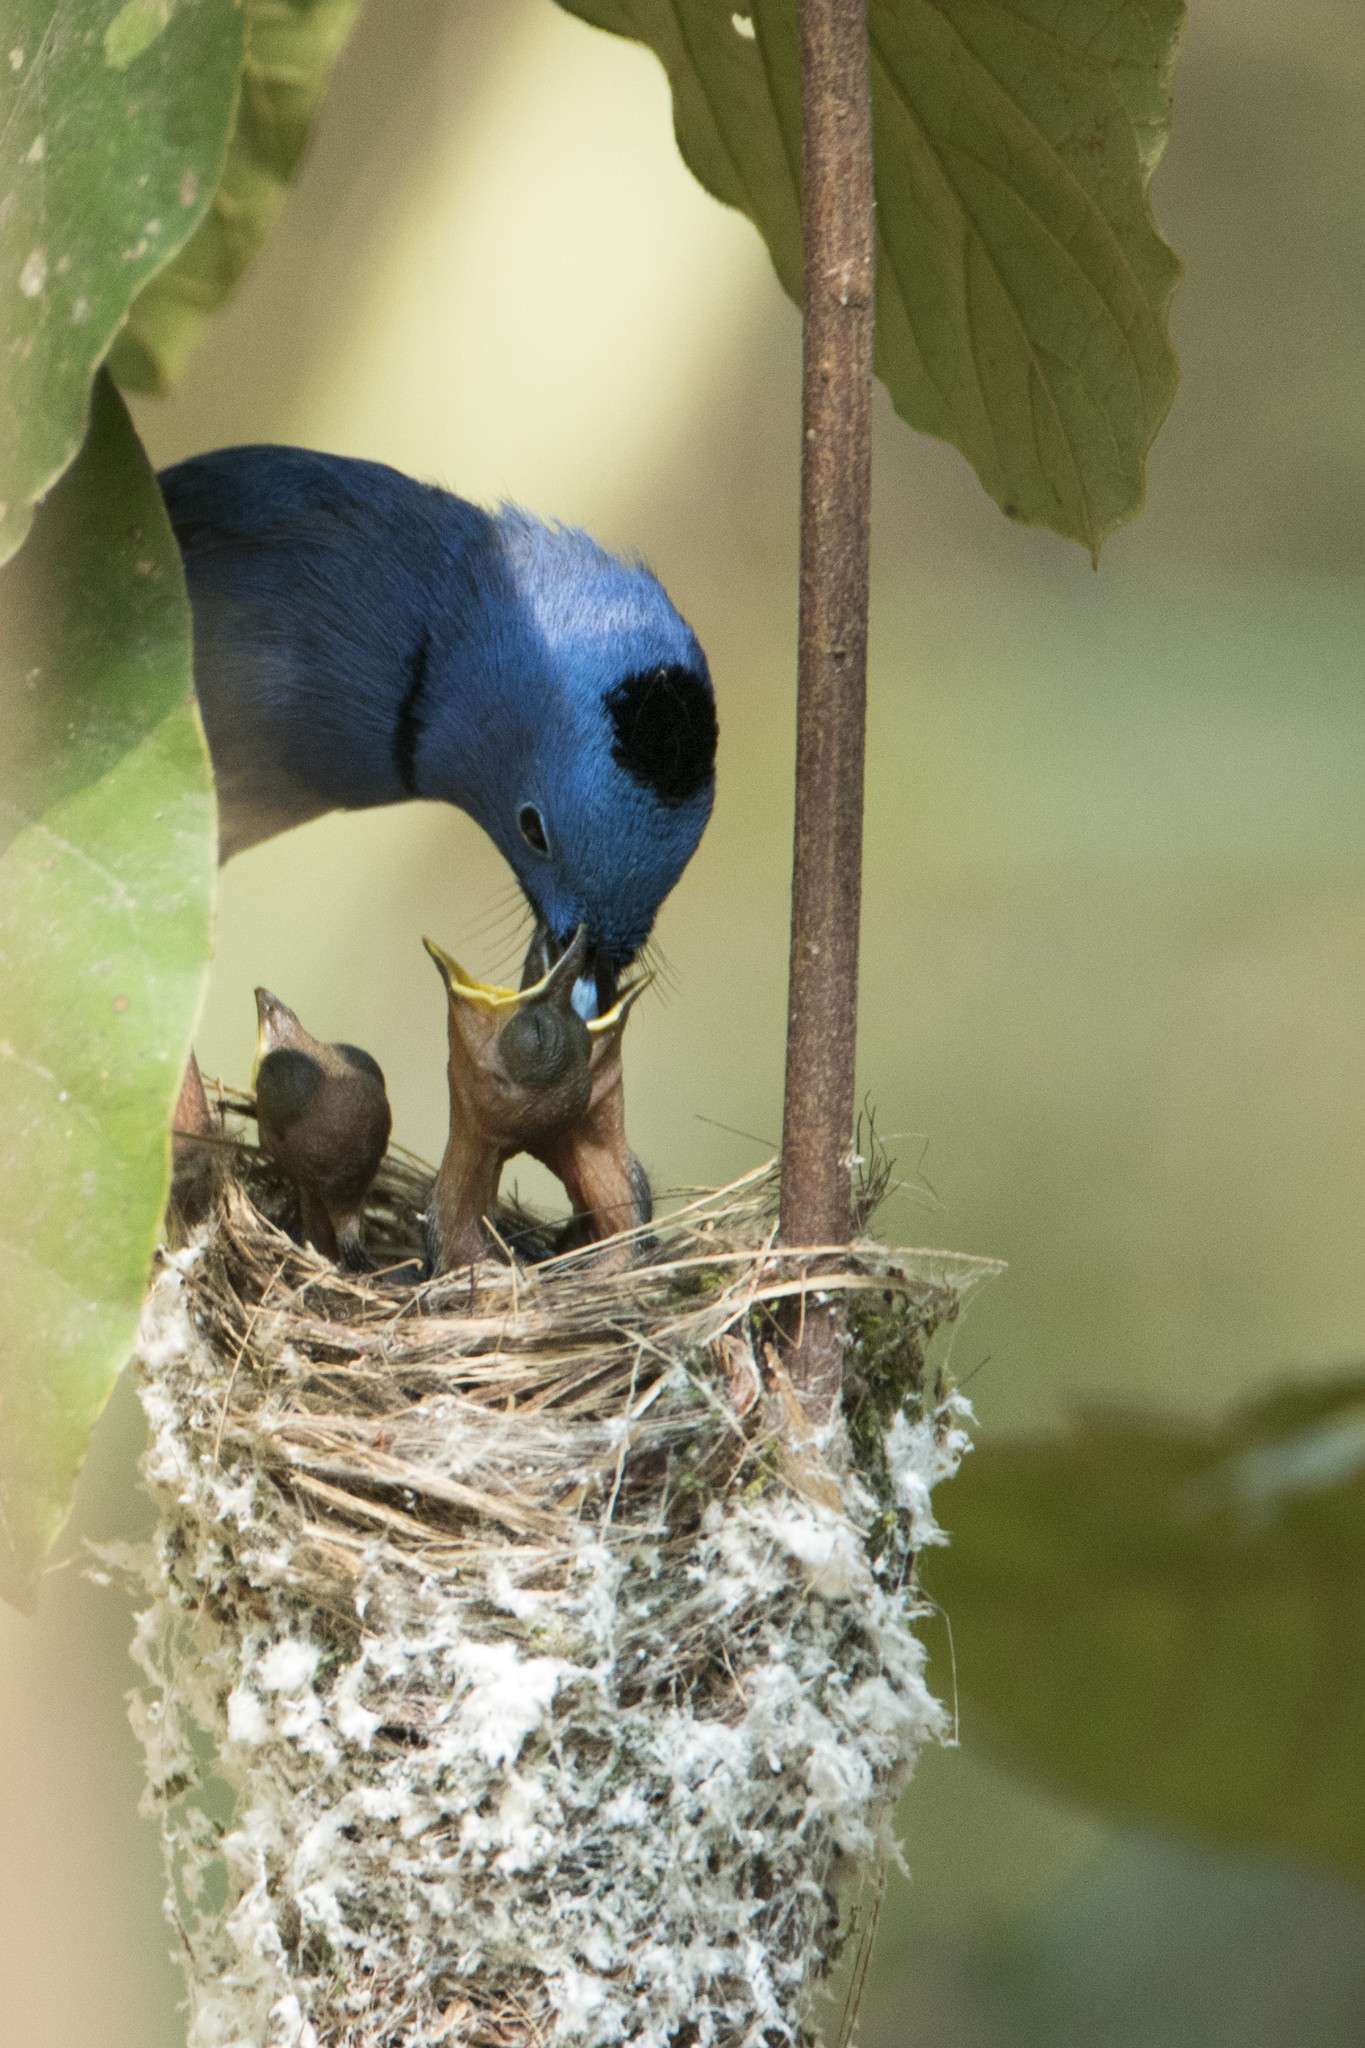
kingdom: Animalia
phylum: Chordata
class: Aves
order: Passeriformes
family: Monarchidae
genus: Hypothymis
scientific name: Hypothymis azurea
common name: Black-naped monarch
